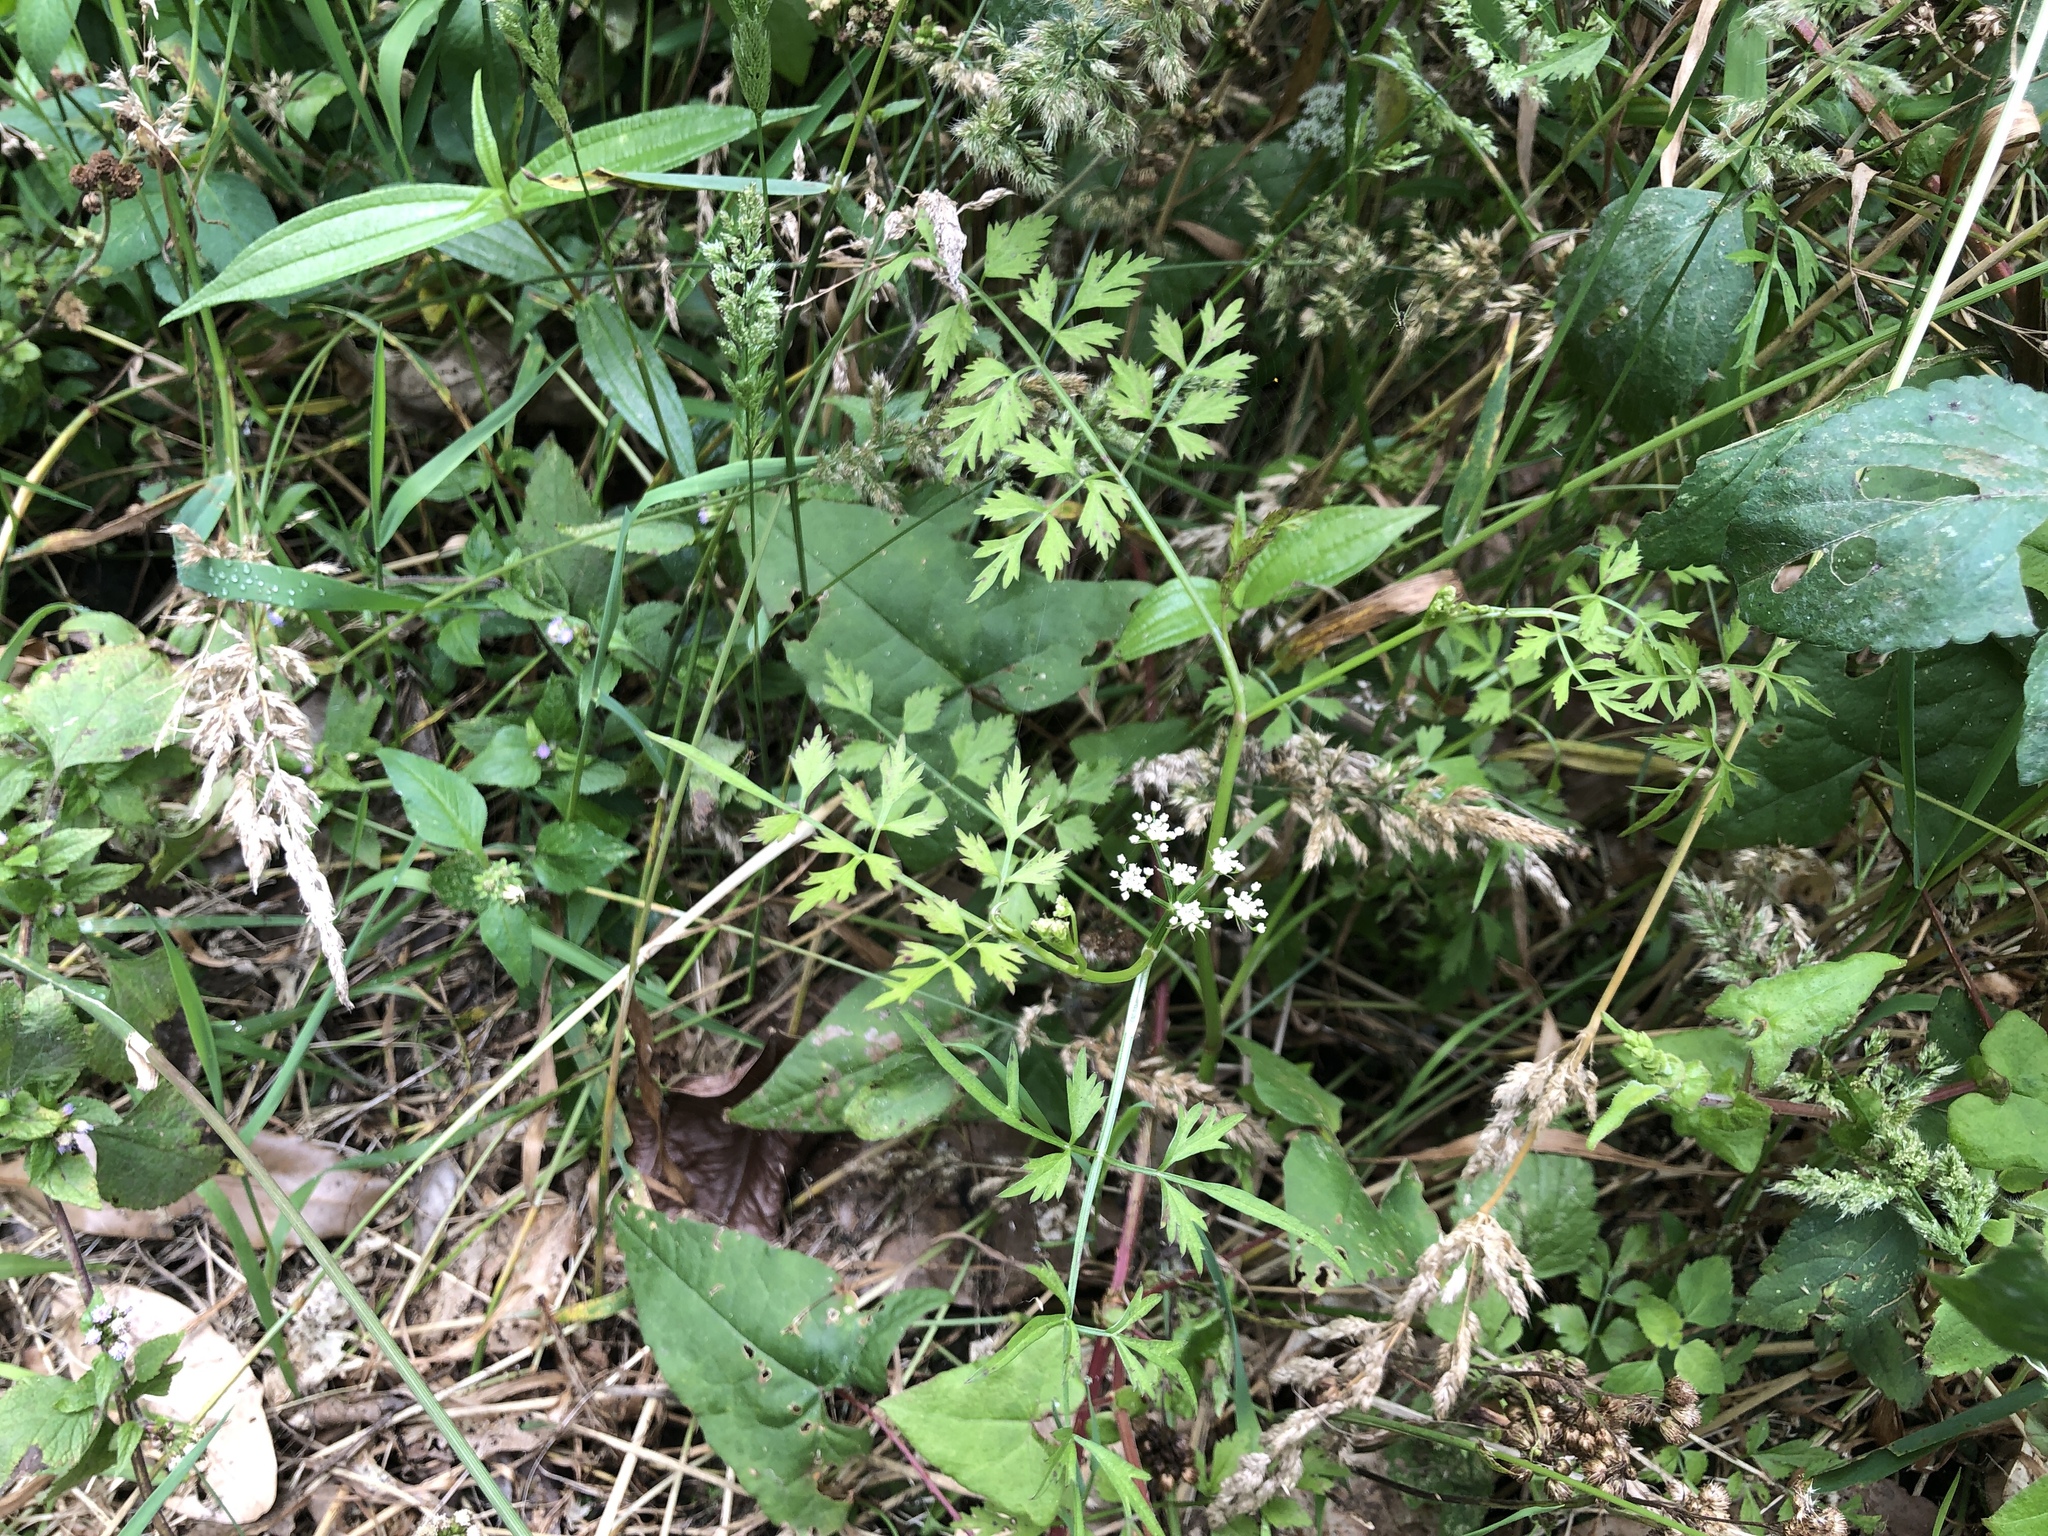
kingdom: Plantae
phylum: Tracheophyta
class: Magnoliopsida
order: Apiales
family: Apiaceae
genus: Oenanthe
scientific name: Oenanthe javanica
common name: Java water-dropwort
